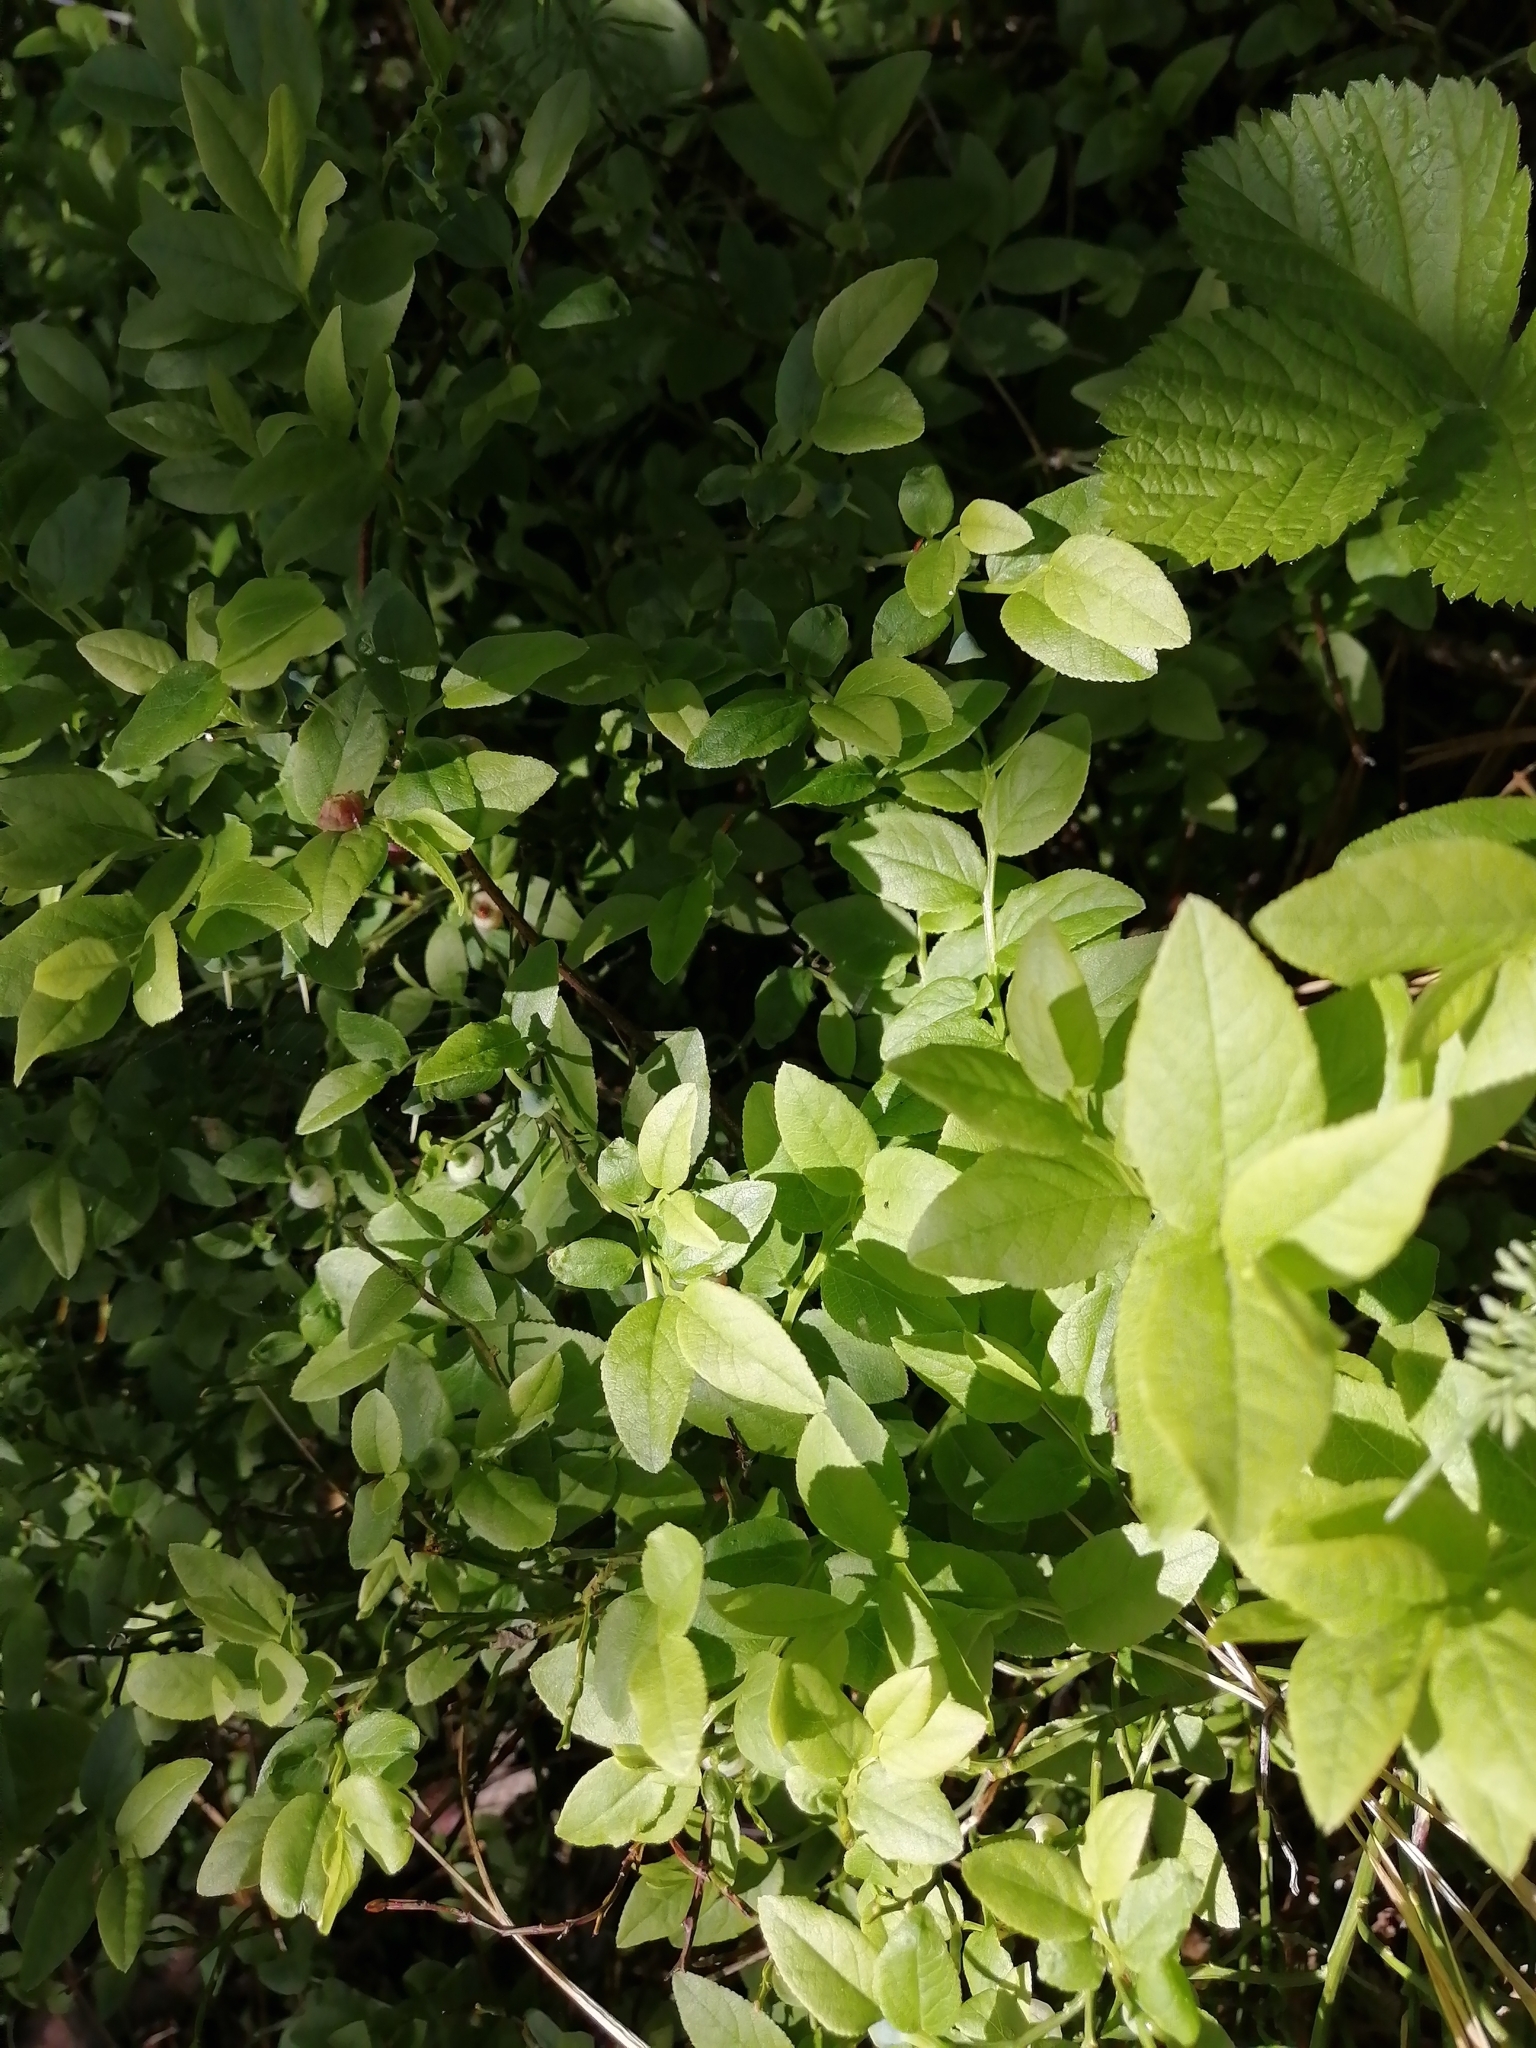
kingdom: Plantae
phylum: Tracheophyta
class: Magnoliopsida
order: Ericales
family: Ericaceae
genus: Vaccinium
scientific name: Vaccinium myrtillus
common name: Bilberry
